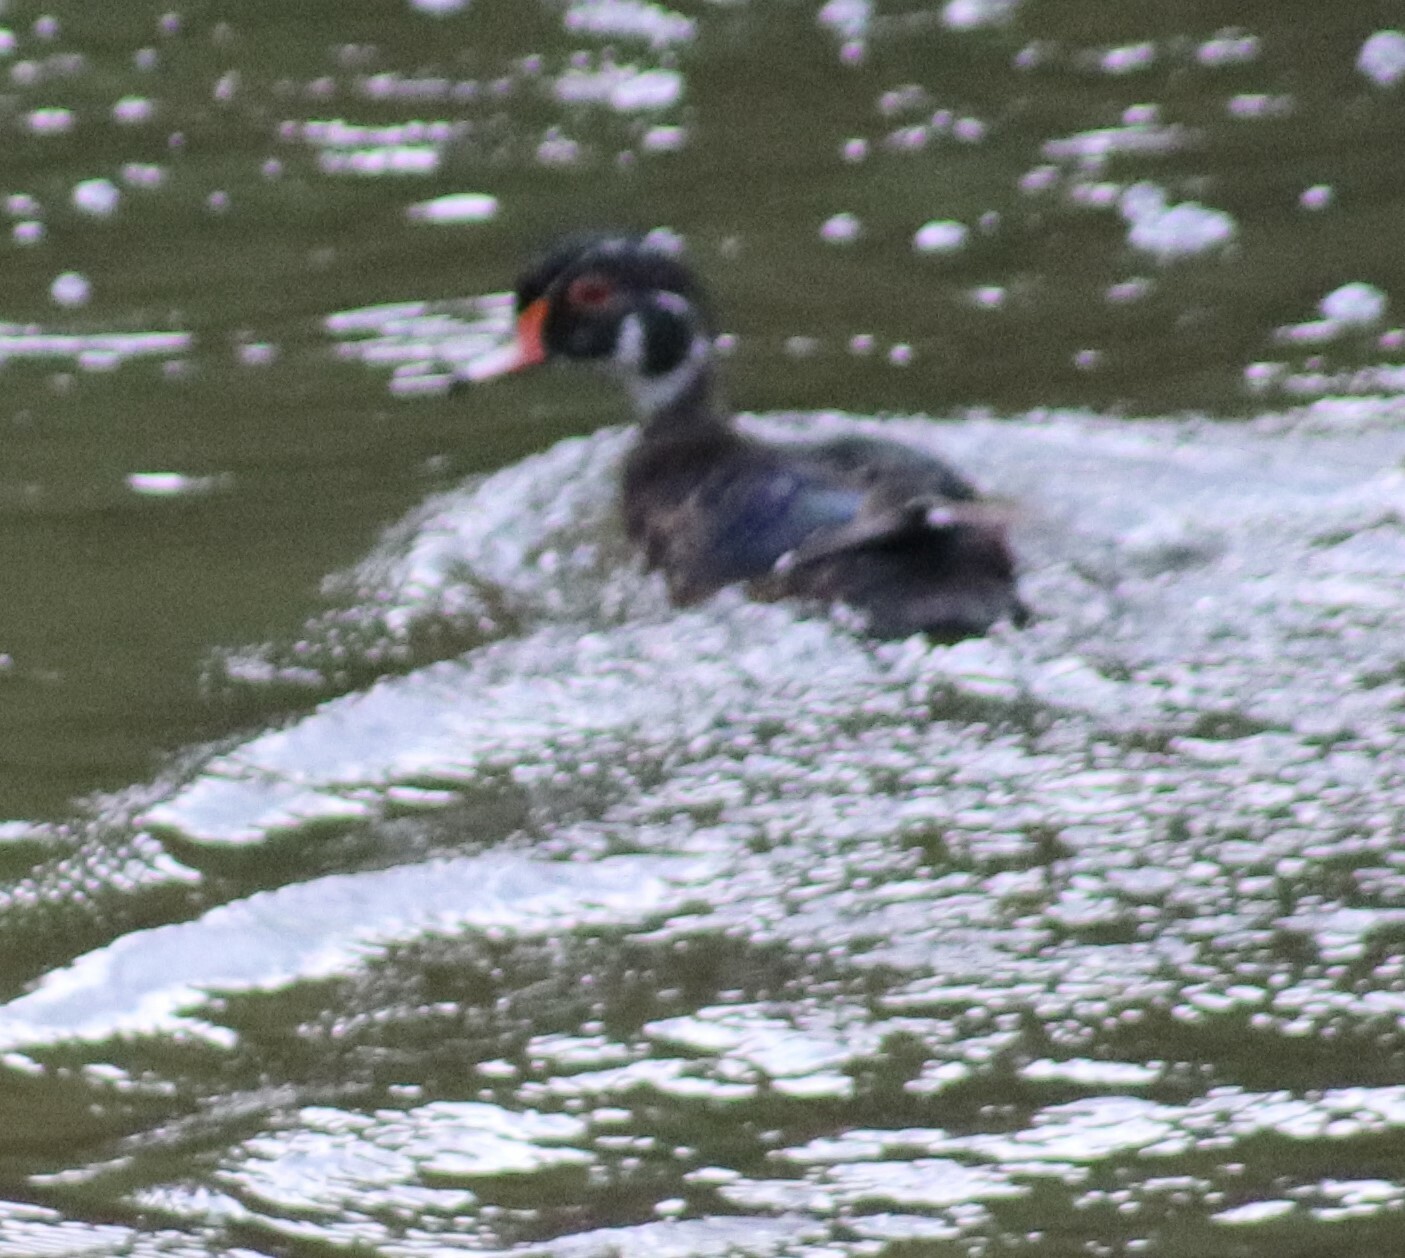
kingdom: Animalia
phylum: Chordata
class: Aves
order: Anseriformes
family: Anatidae
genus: Aix
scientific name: Aix sponsa
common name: Wood duck
